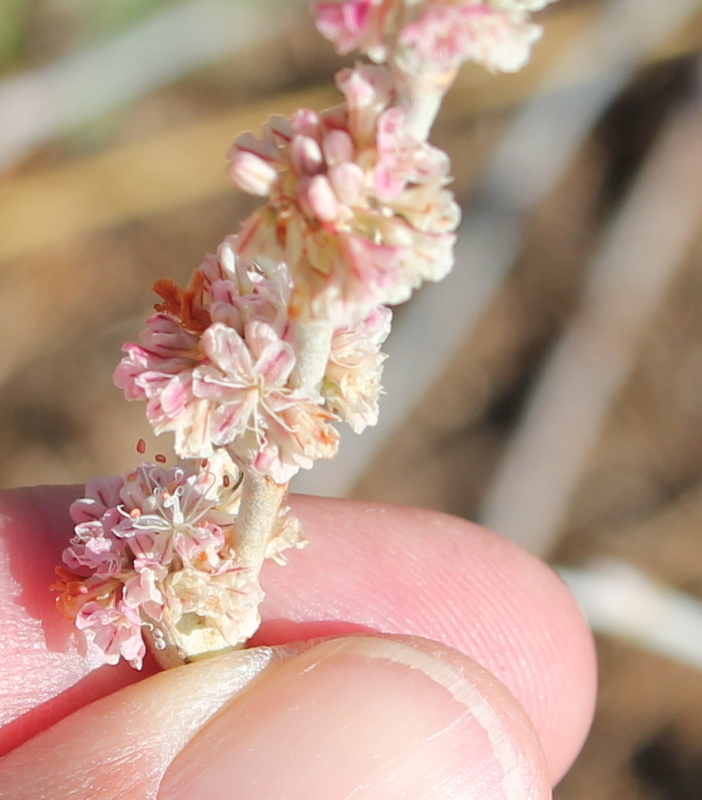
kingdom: Plantae
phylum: Tracheophyta
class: Magnoliopsida
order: Caryophyllales
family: Polygonaceae
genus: Eriogonum
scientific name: Eriogonum elongatum
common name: Long-stem wild buckwheat
